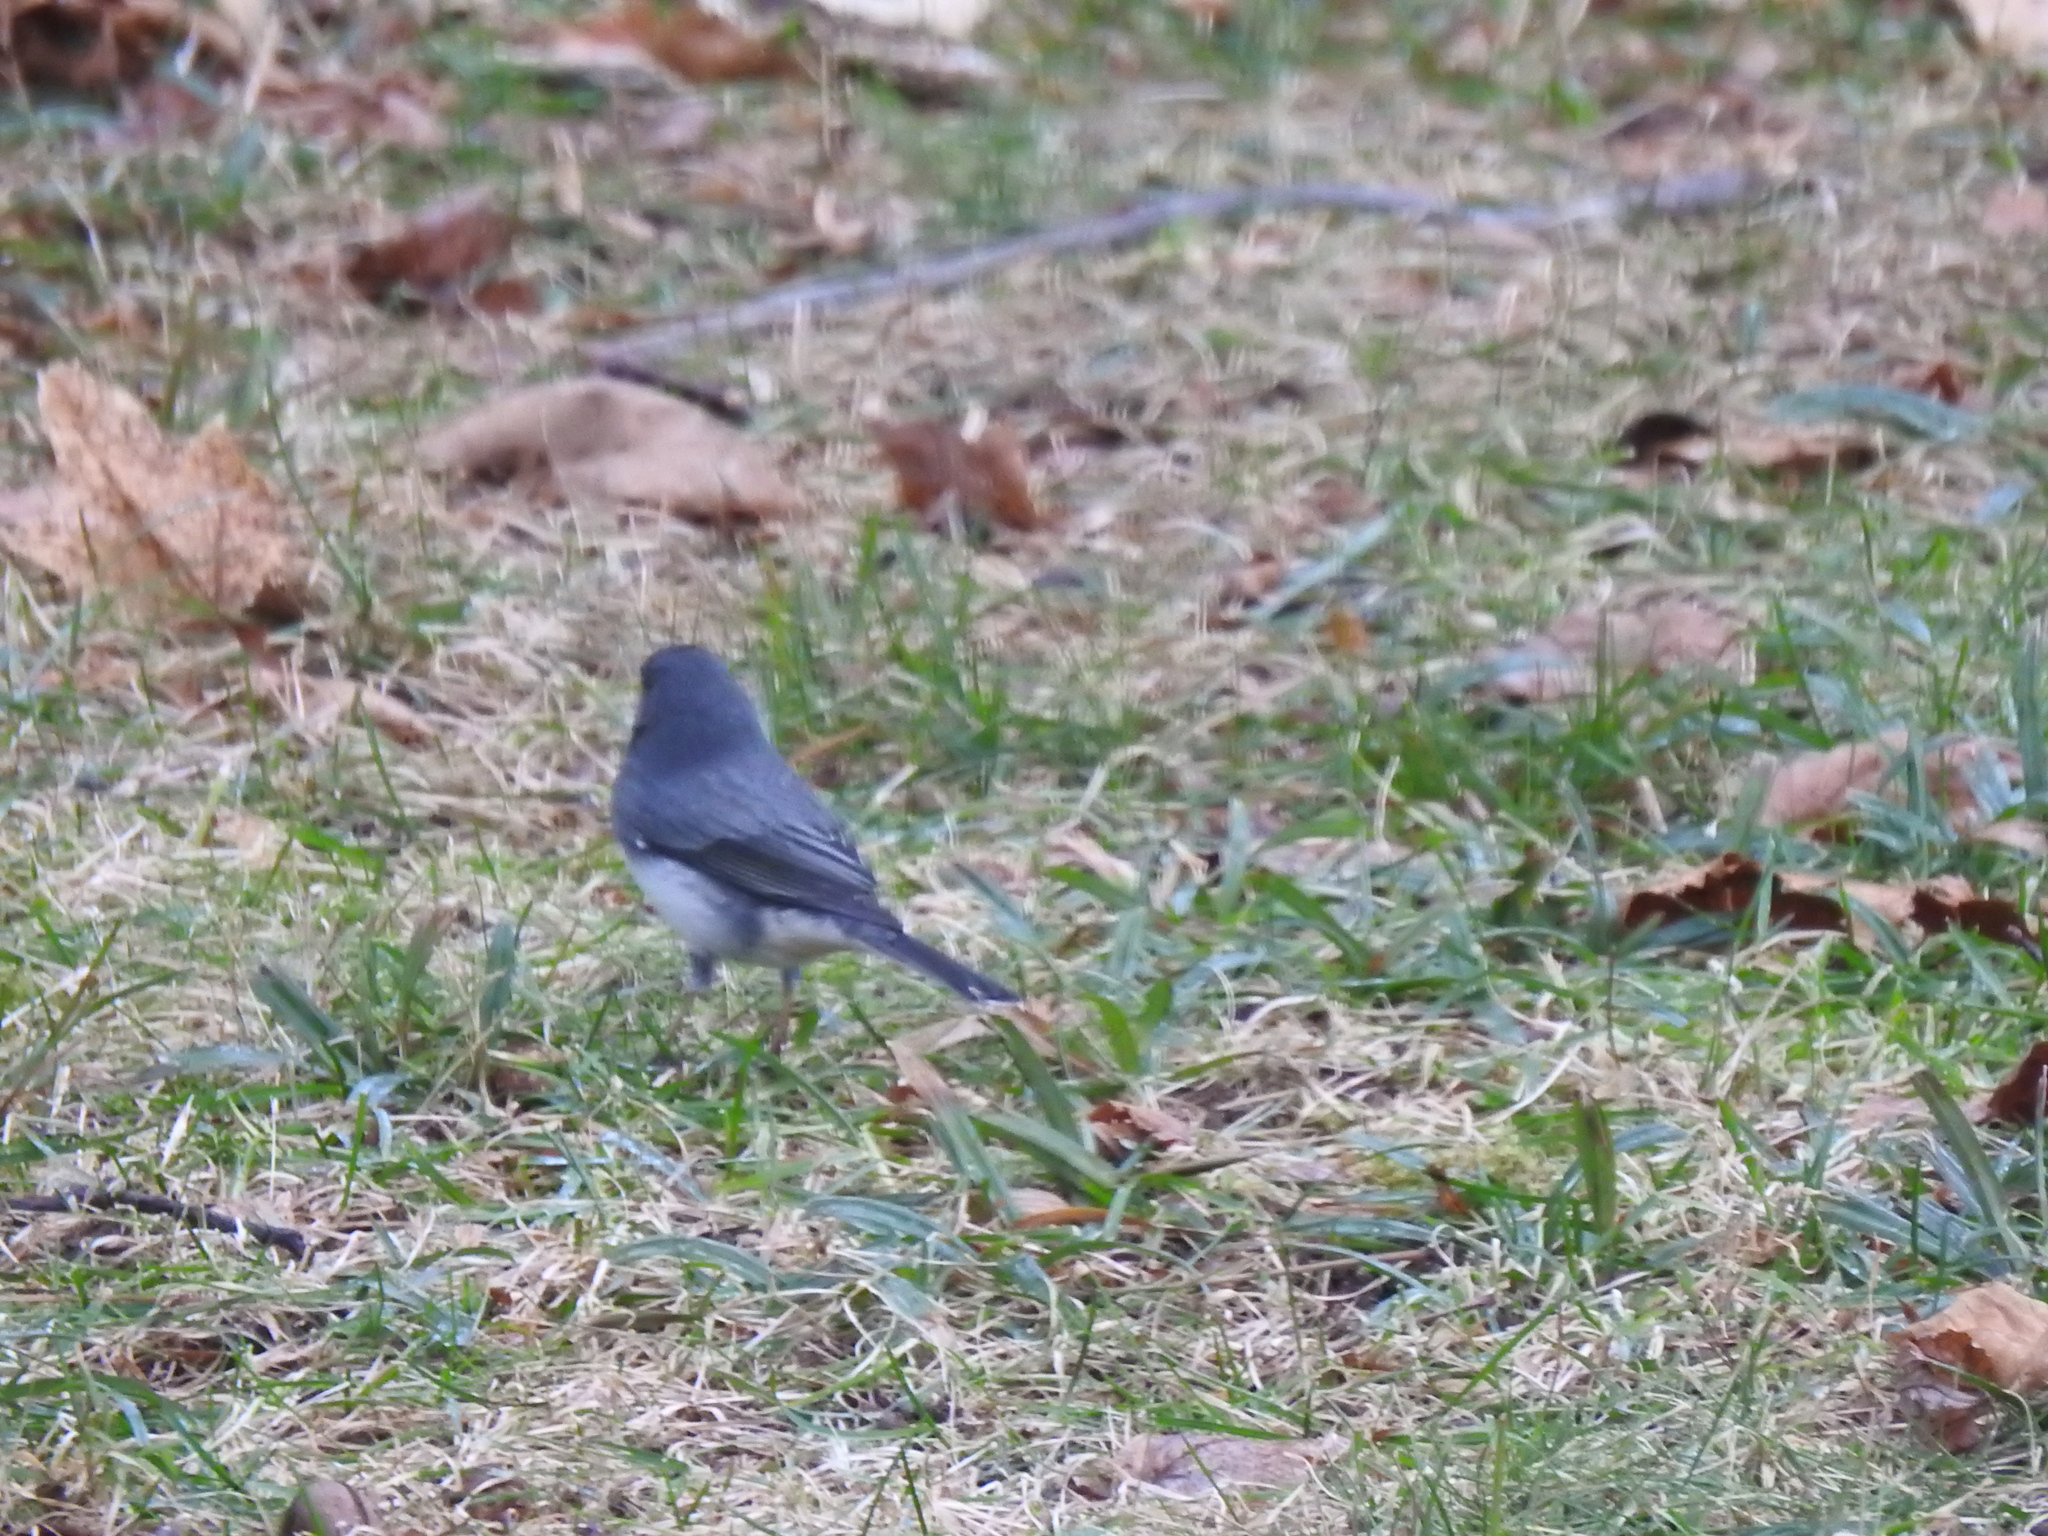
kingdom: Animalia
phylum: Chordata
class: Aves
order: Passeriformes
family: Passerellidae
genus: Junco
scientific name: Junco hyemalis
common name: Dark-eyed junco
